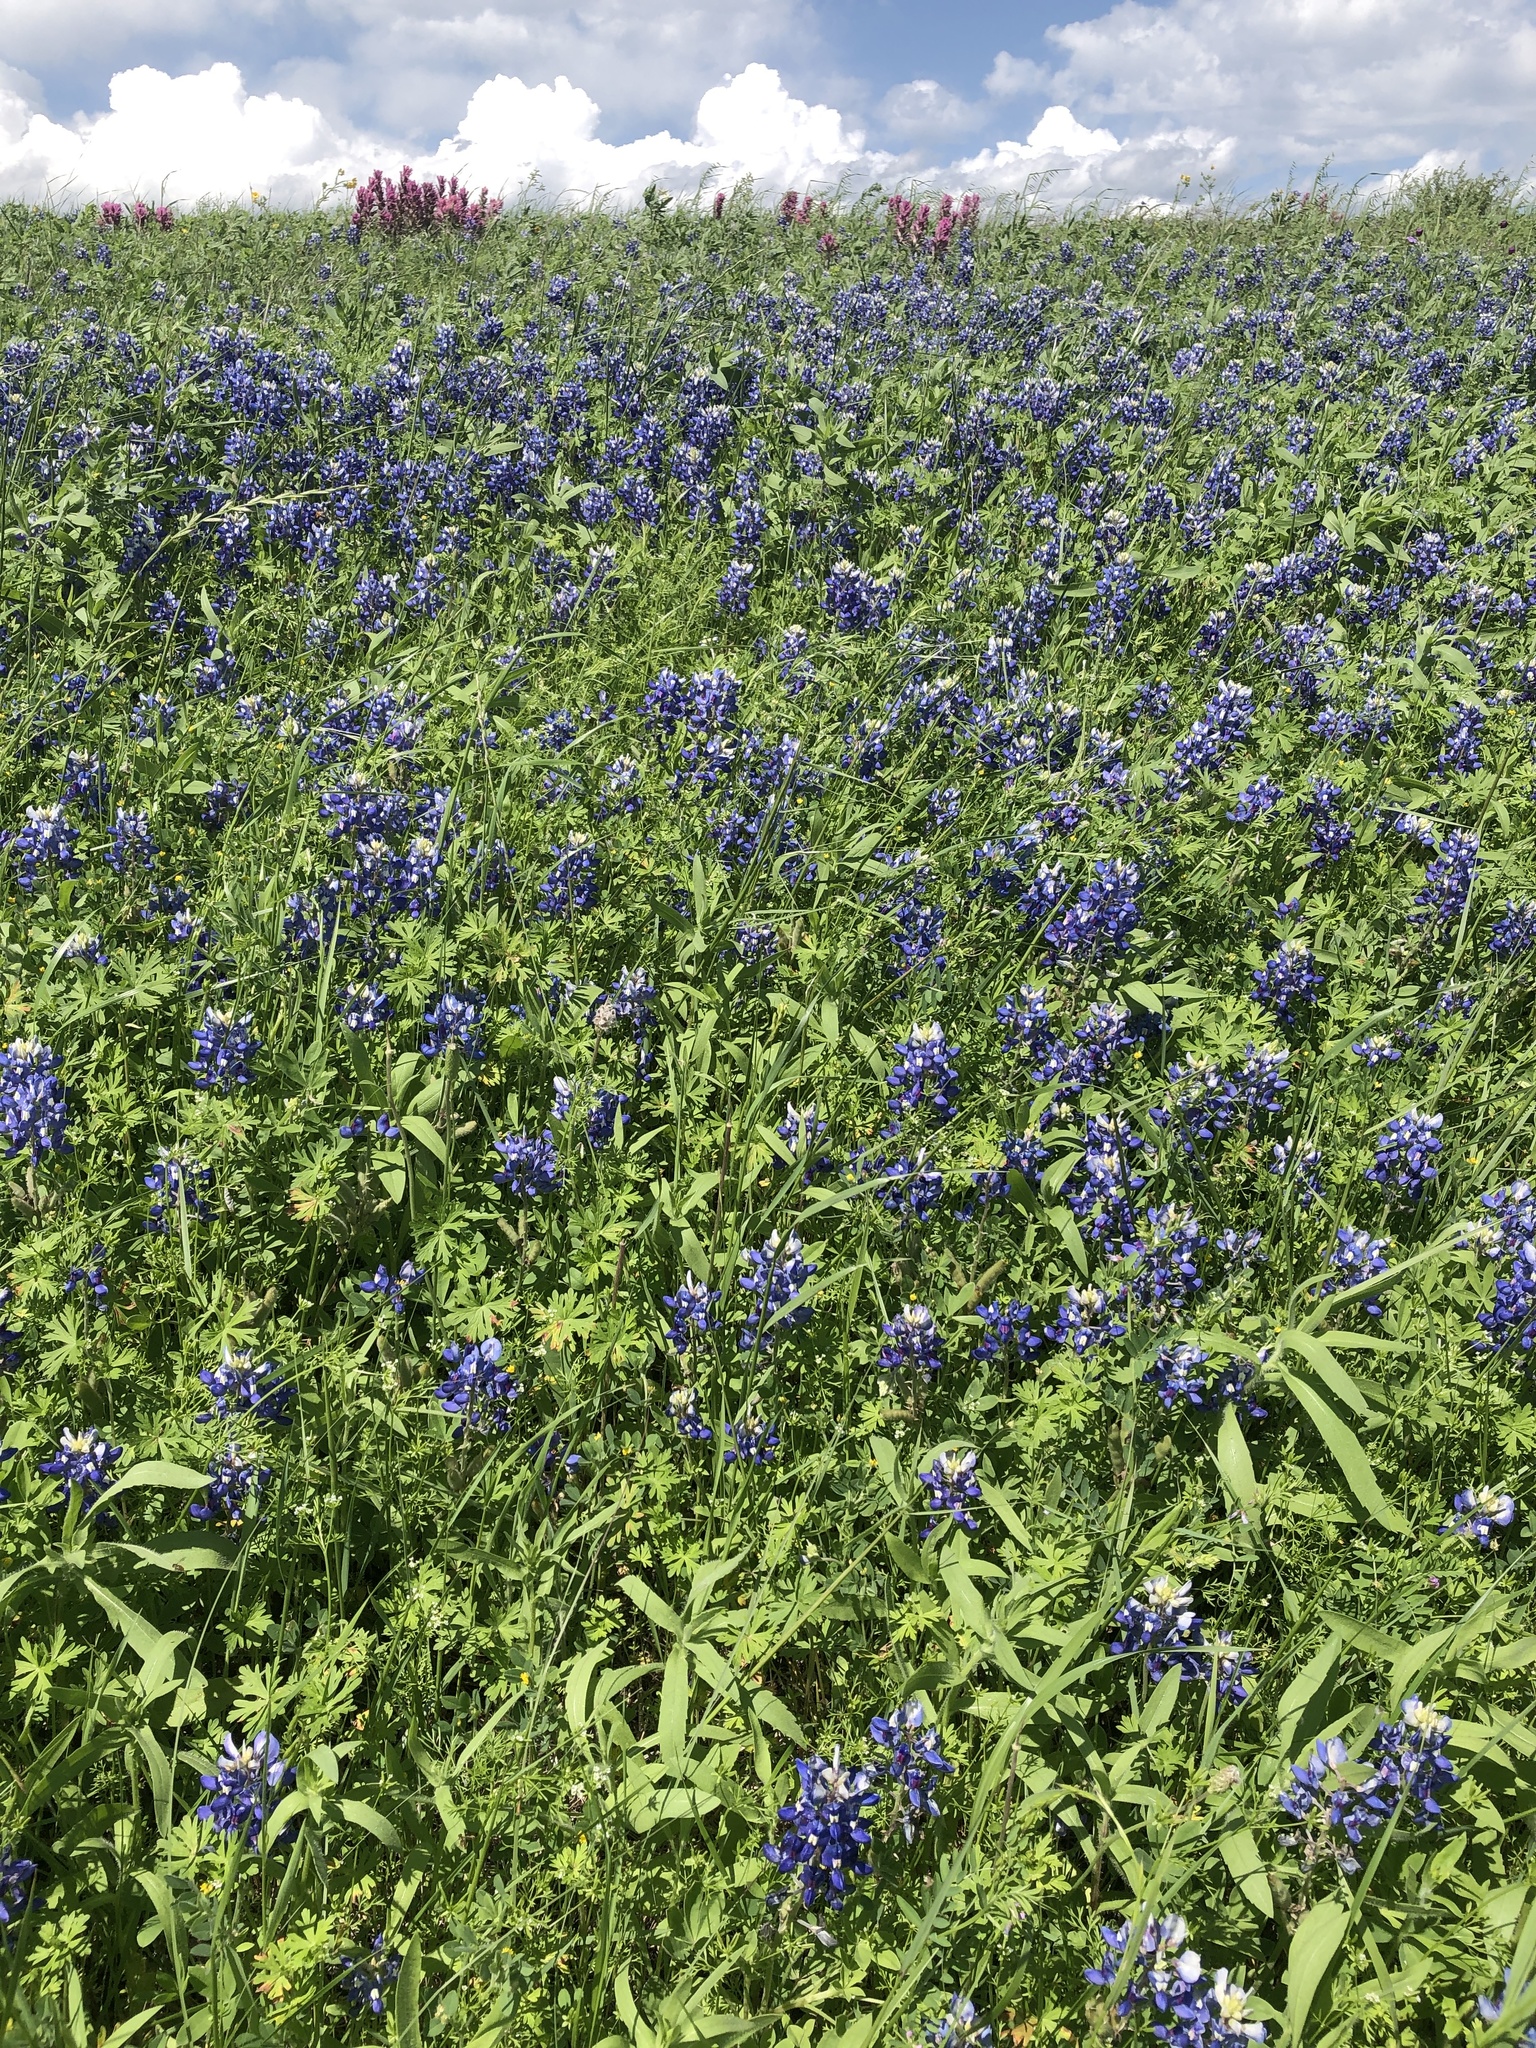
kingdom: Plantae
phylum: Tracheophyta
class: Magnoliopsida
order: Fabales
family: Fabaceae
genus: Lupinus
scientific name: Lupinus texensis
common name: Texas bluebonnet
